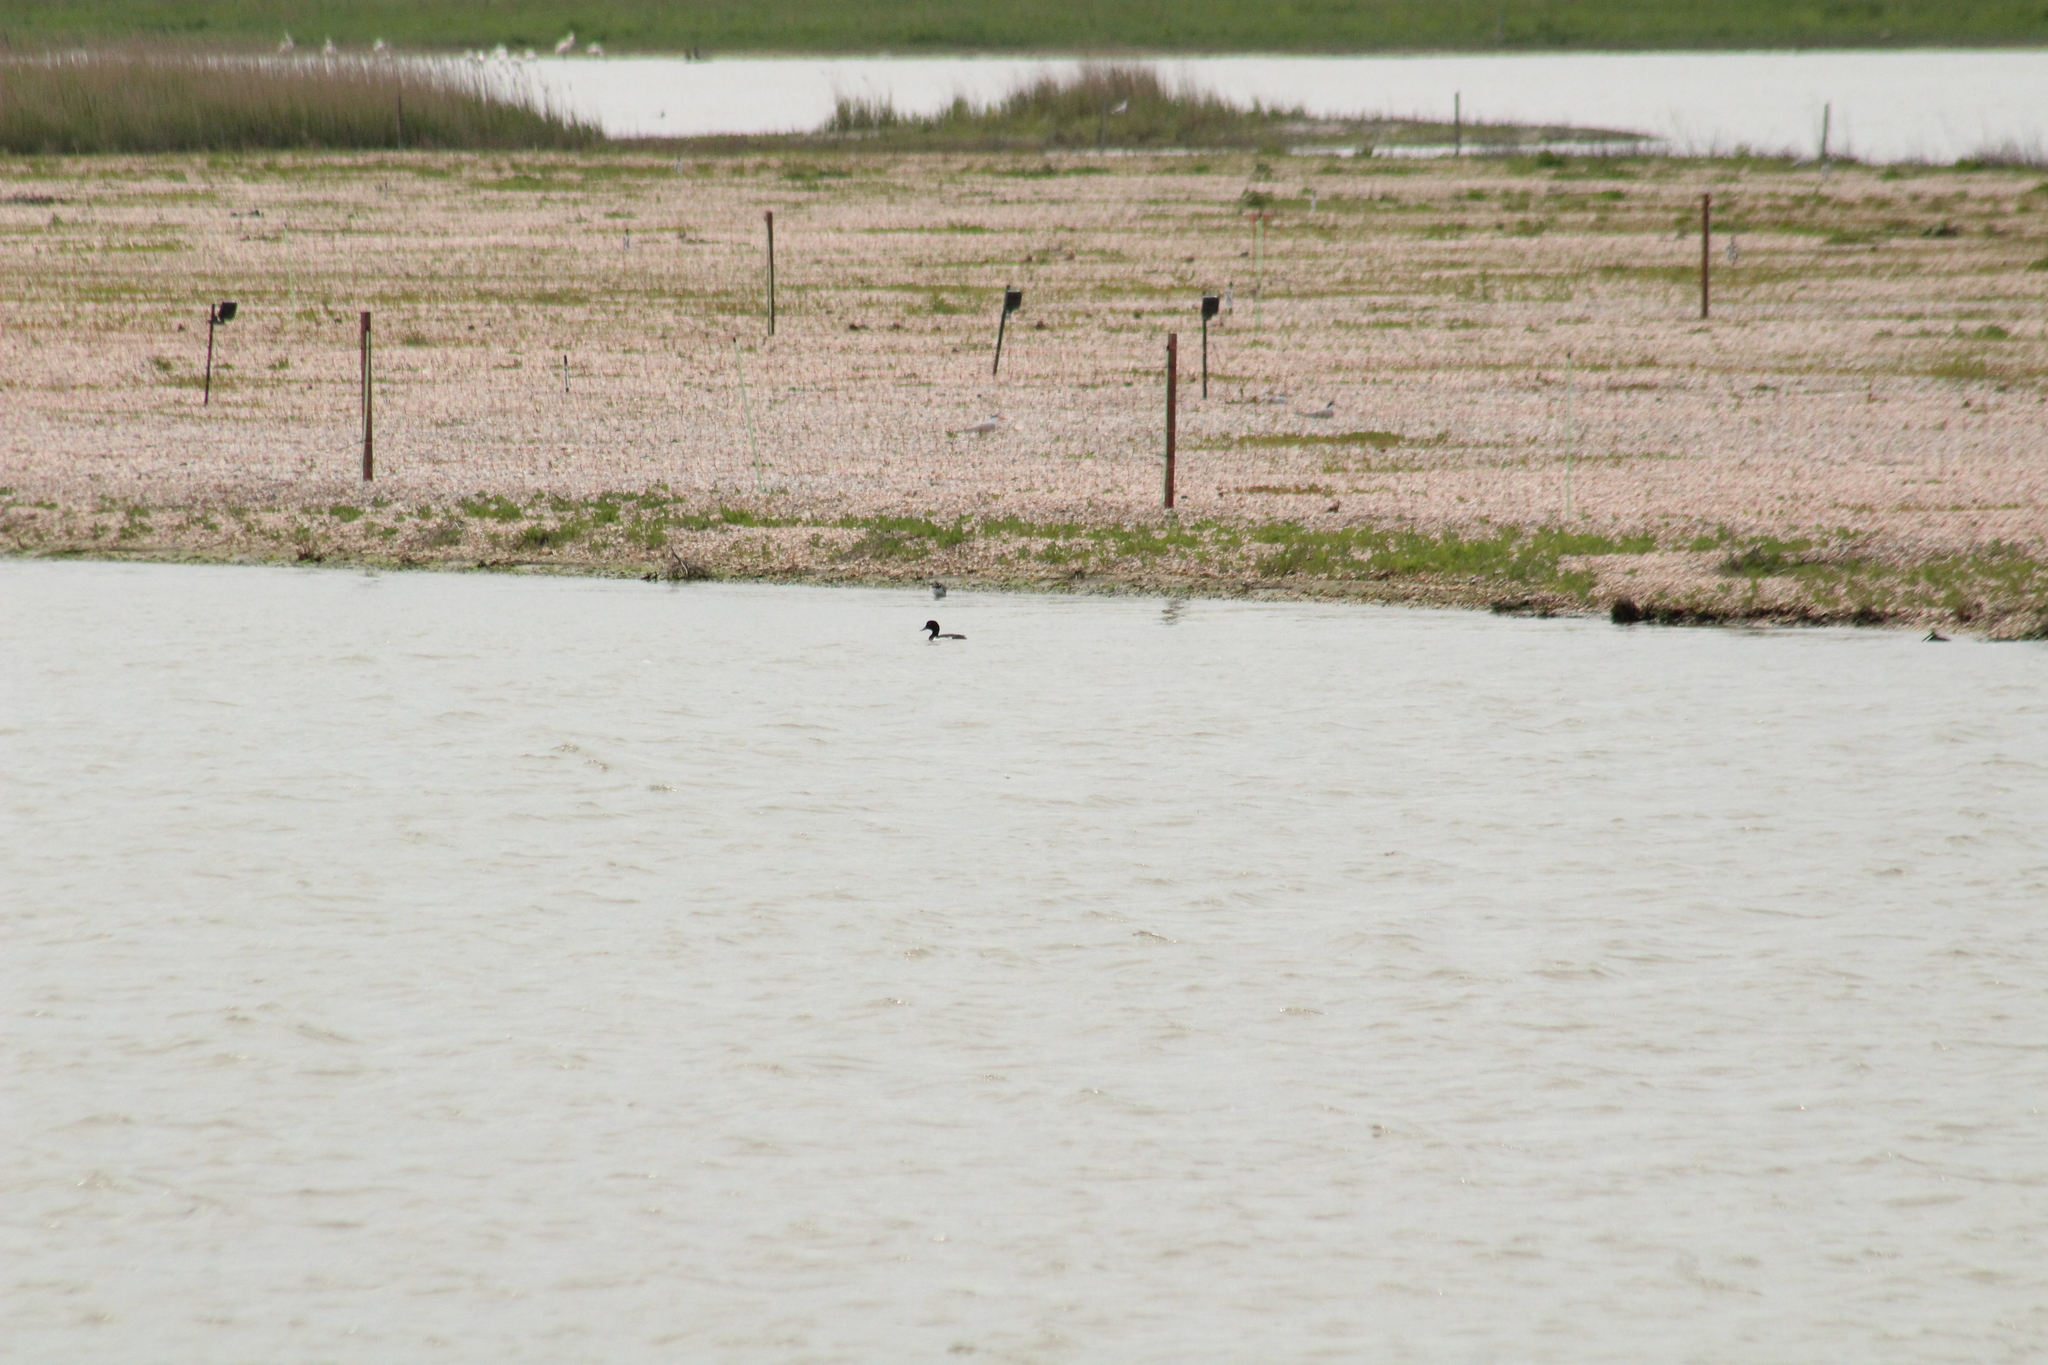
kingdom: Animalia
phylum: Chordata
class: Aves
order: Anseriformes
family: Anatidae
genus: Aythya
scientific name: Aythya fuligula
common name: Tufted duck
